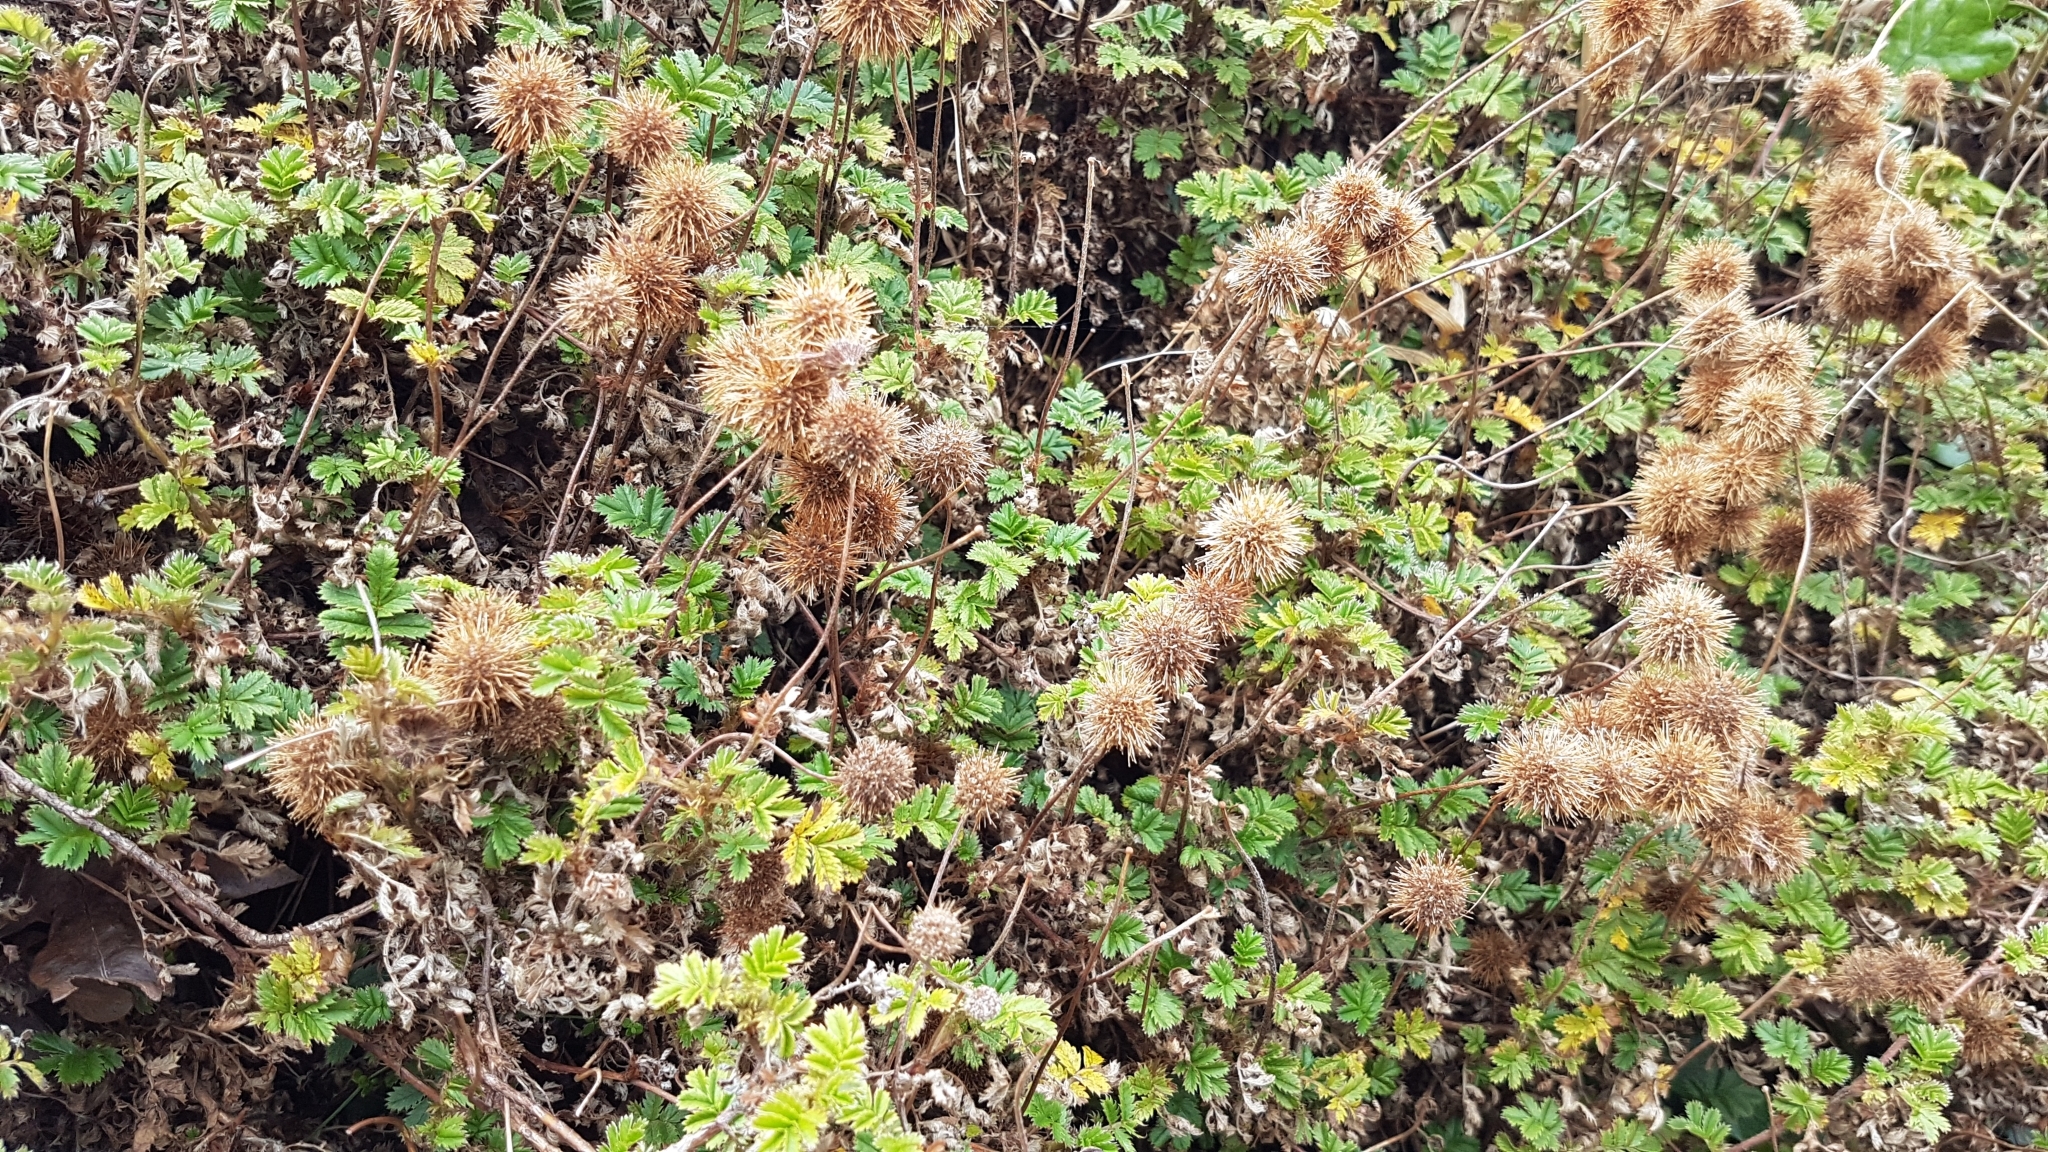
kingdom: Plantae
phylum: Tracheophyta
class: Magnoliopsida
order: Rosales
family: Rosaceae
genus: Acaena
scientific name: Acaena anserinifolia
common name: Bronze pirri-pirri-bur
